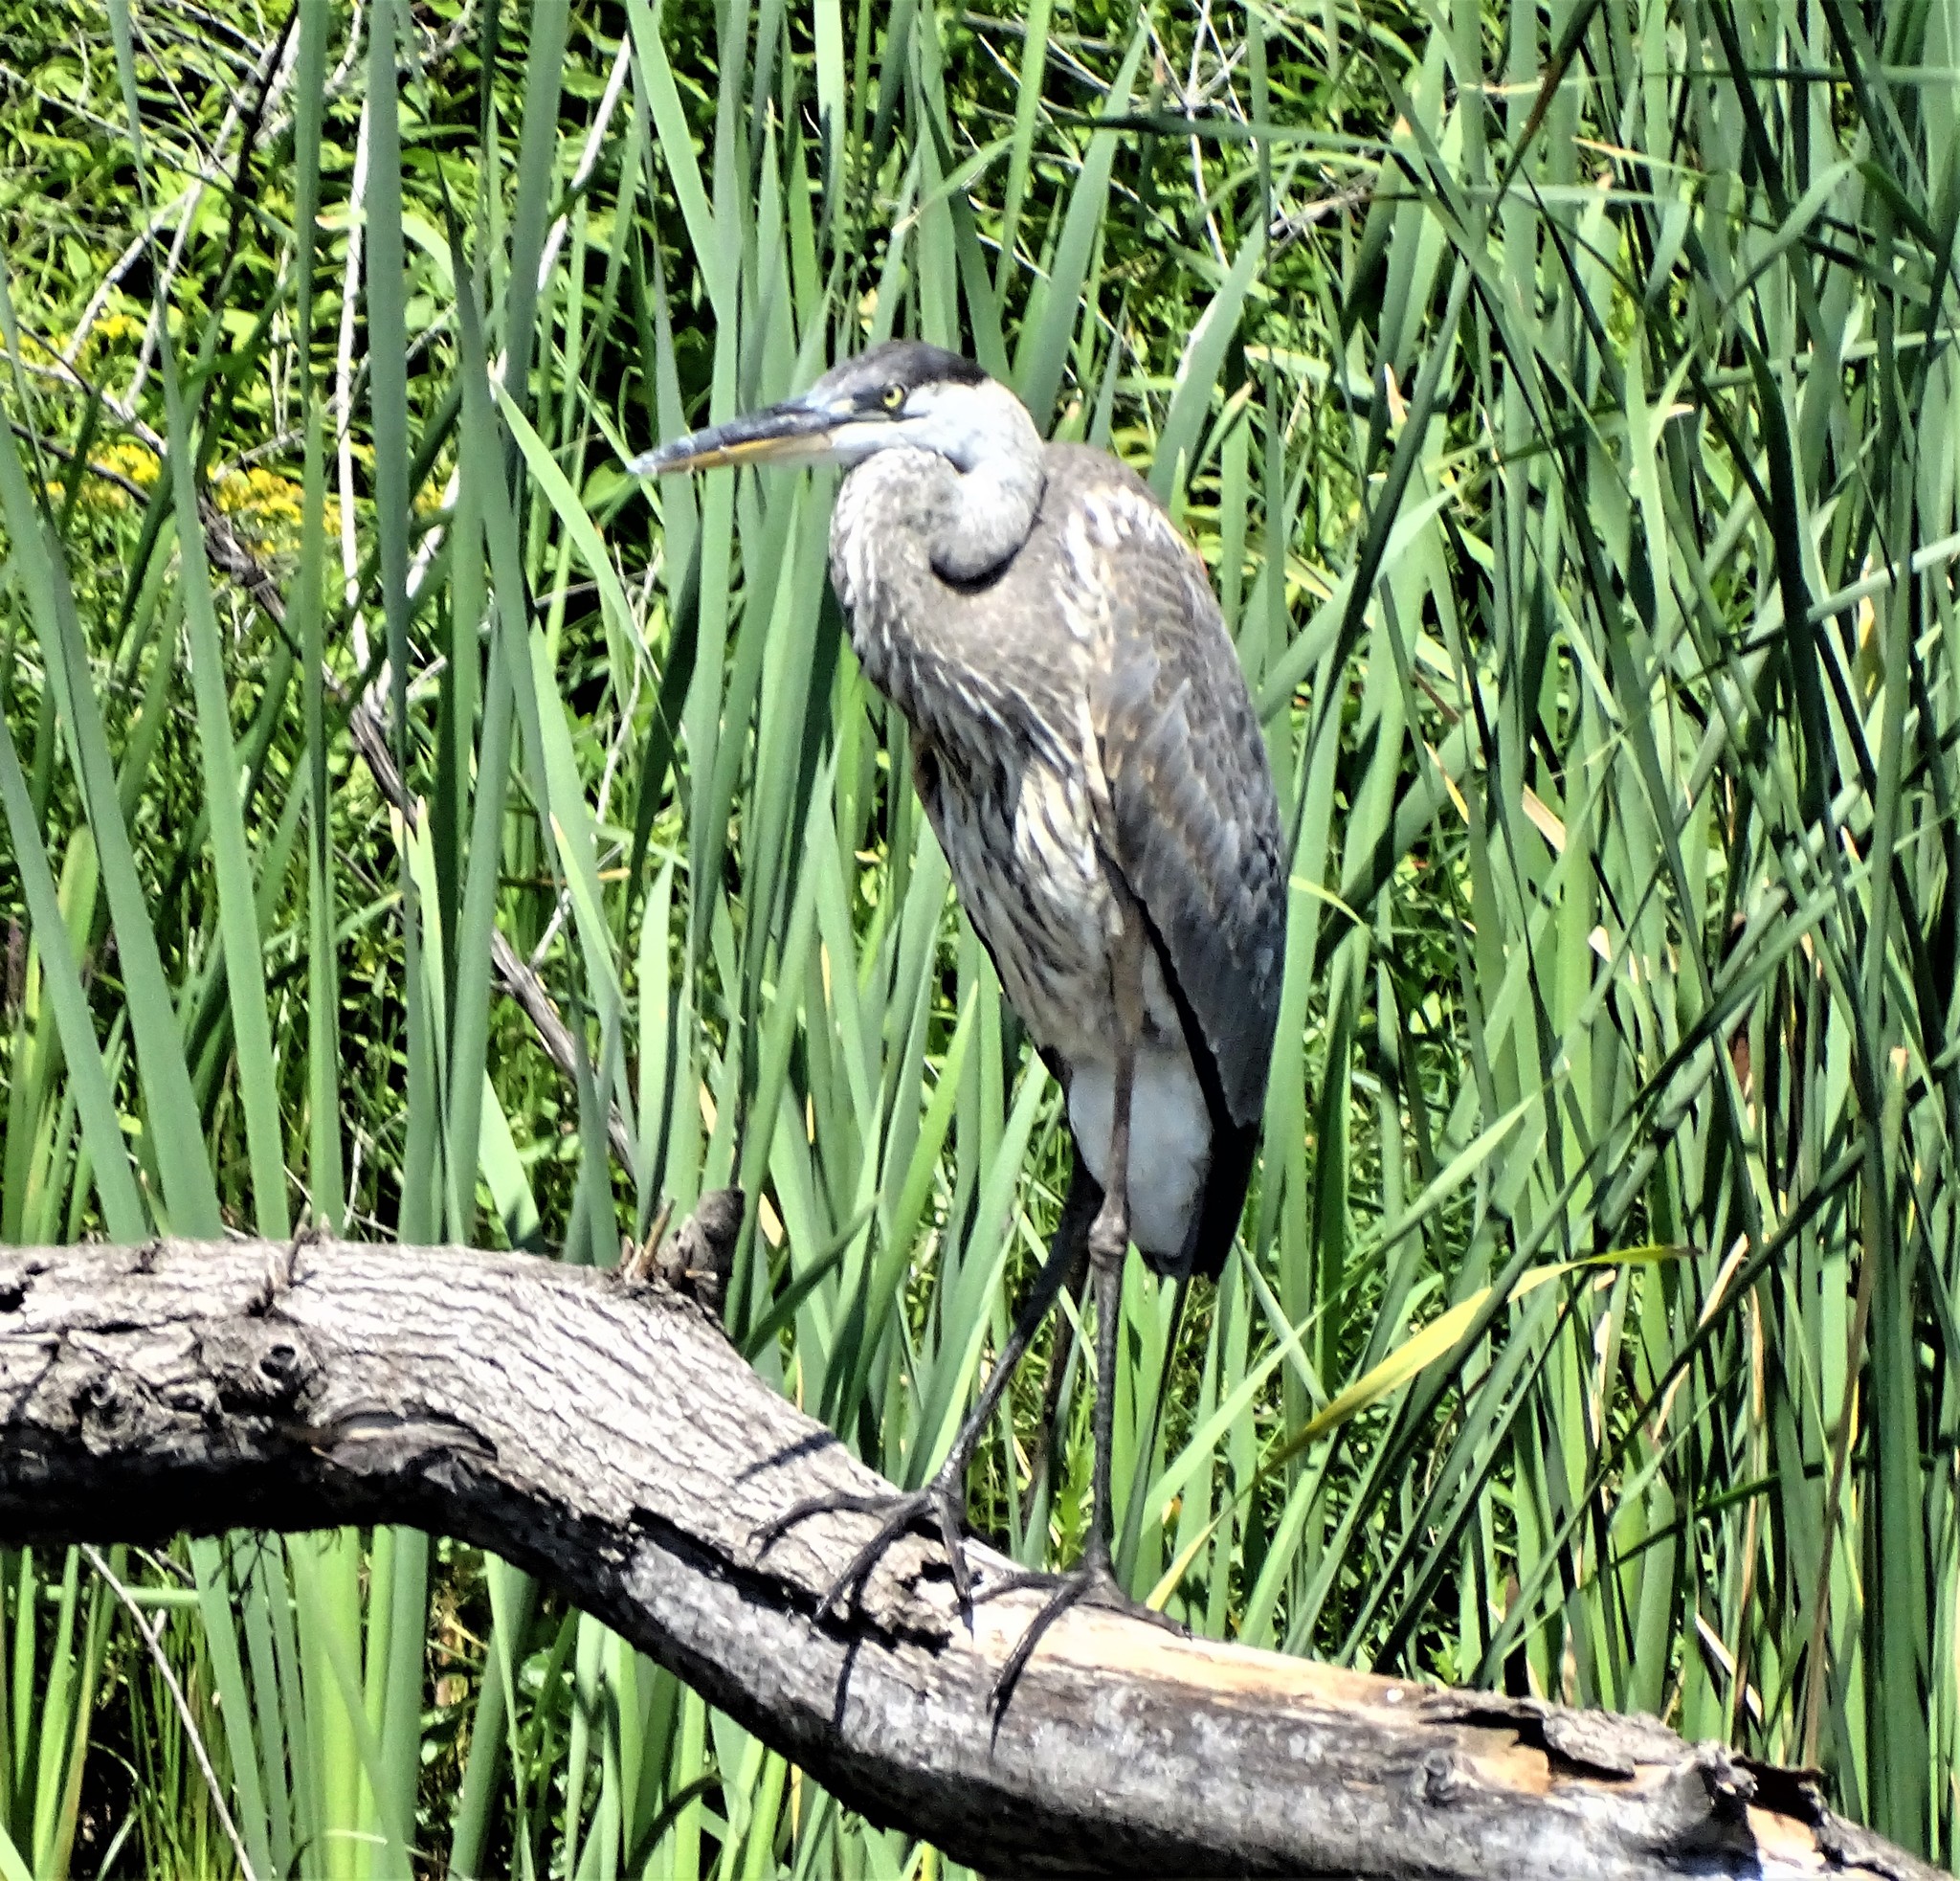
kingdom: Animalia
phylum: Chordata
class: Aves
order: Pelecaniformes
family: Ardeidae
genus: Ardea
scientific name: Ardea herodias
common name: Great blue heron
